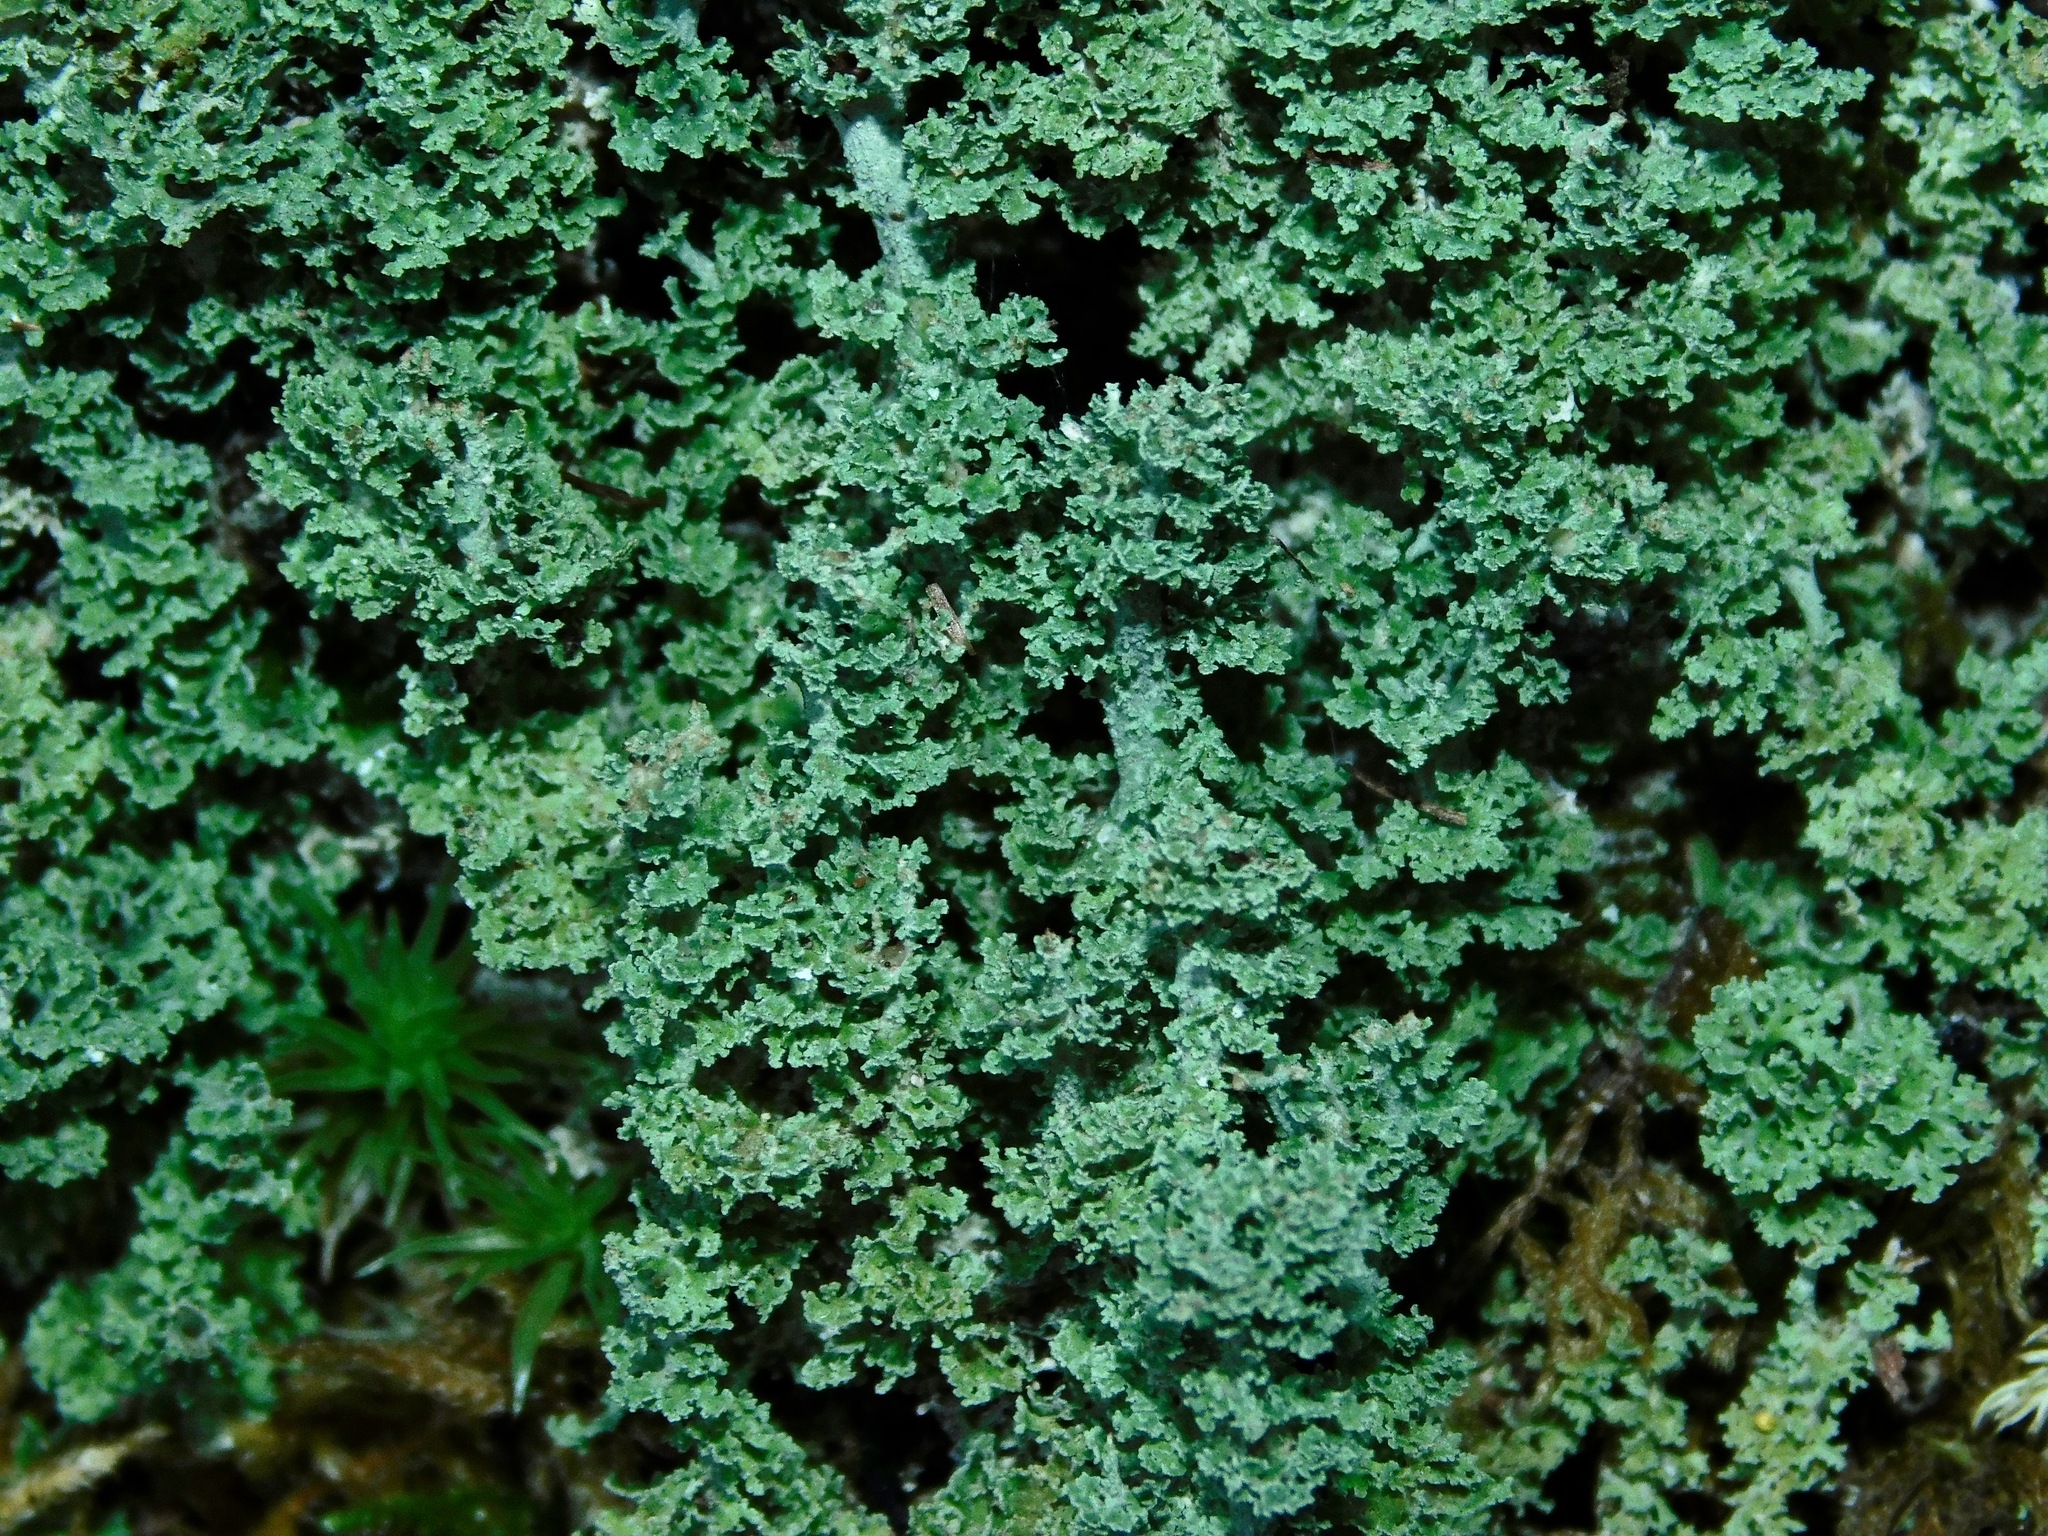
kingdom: Fungi
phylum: Ascomycota
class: Lecanoromycetes
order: Lecanorales
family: Cladoniaceae
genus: Cladonia
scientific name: Cladonia squamosa
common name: Dragon horn
